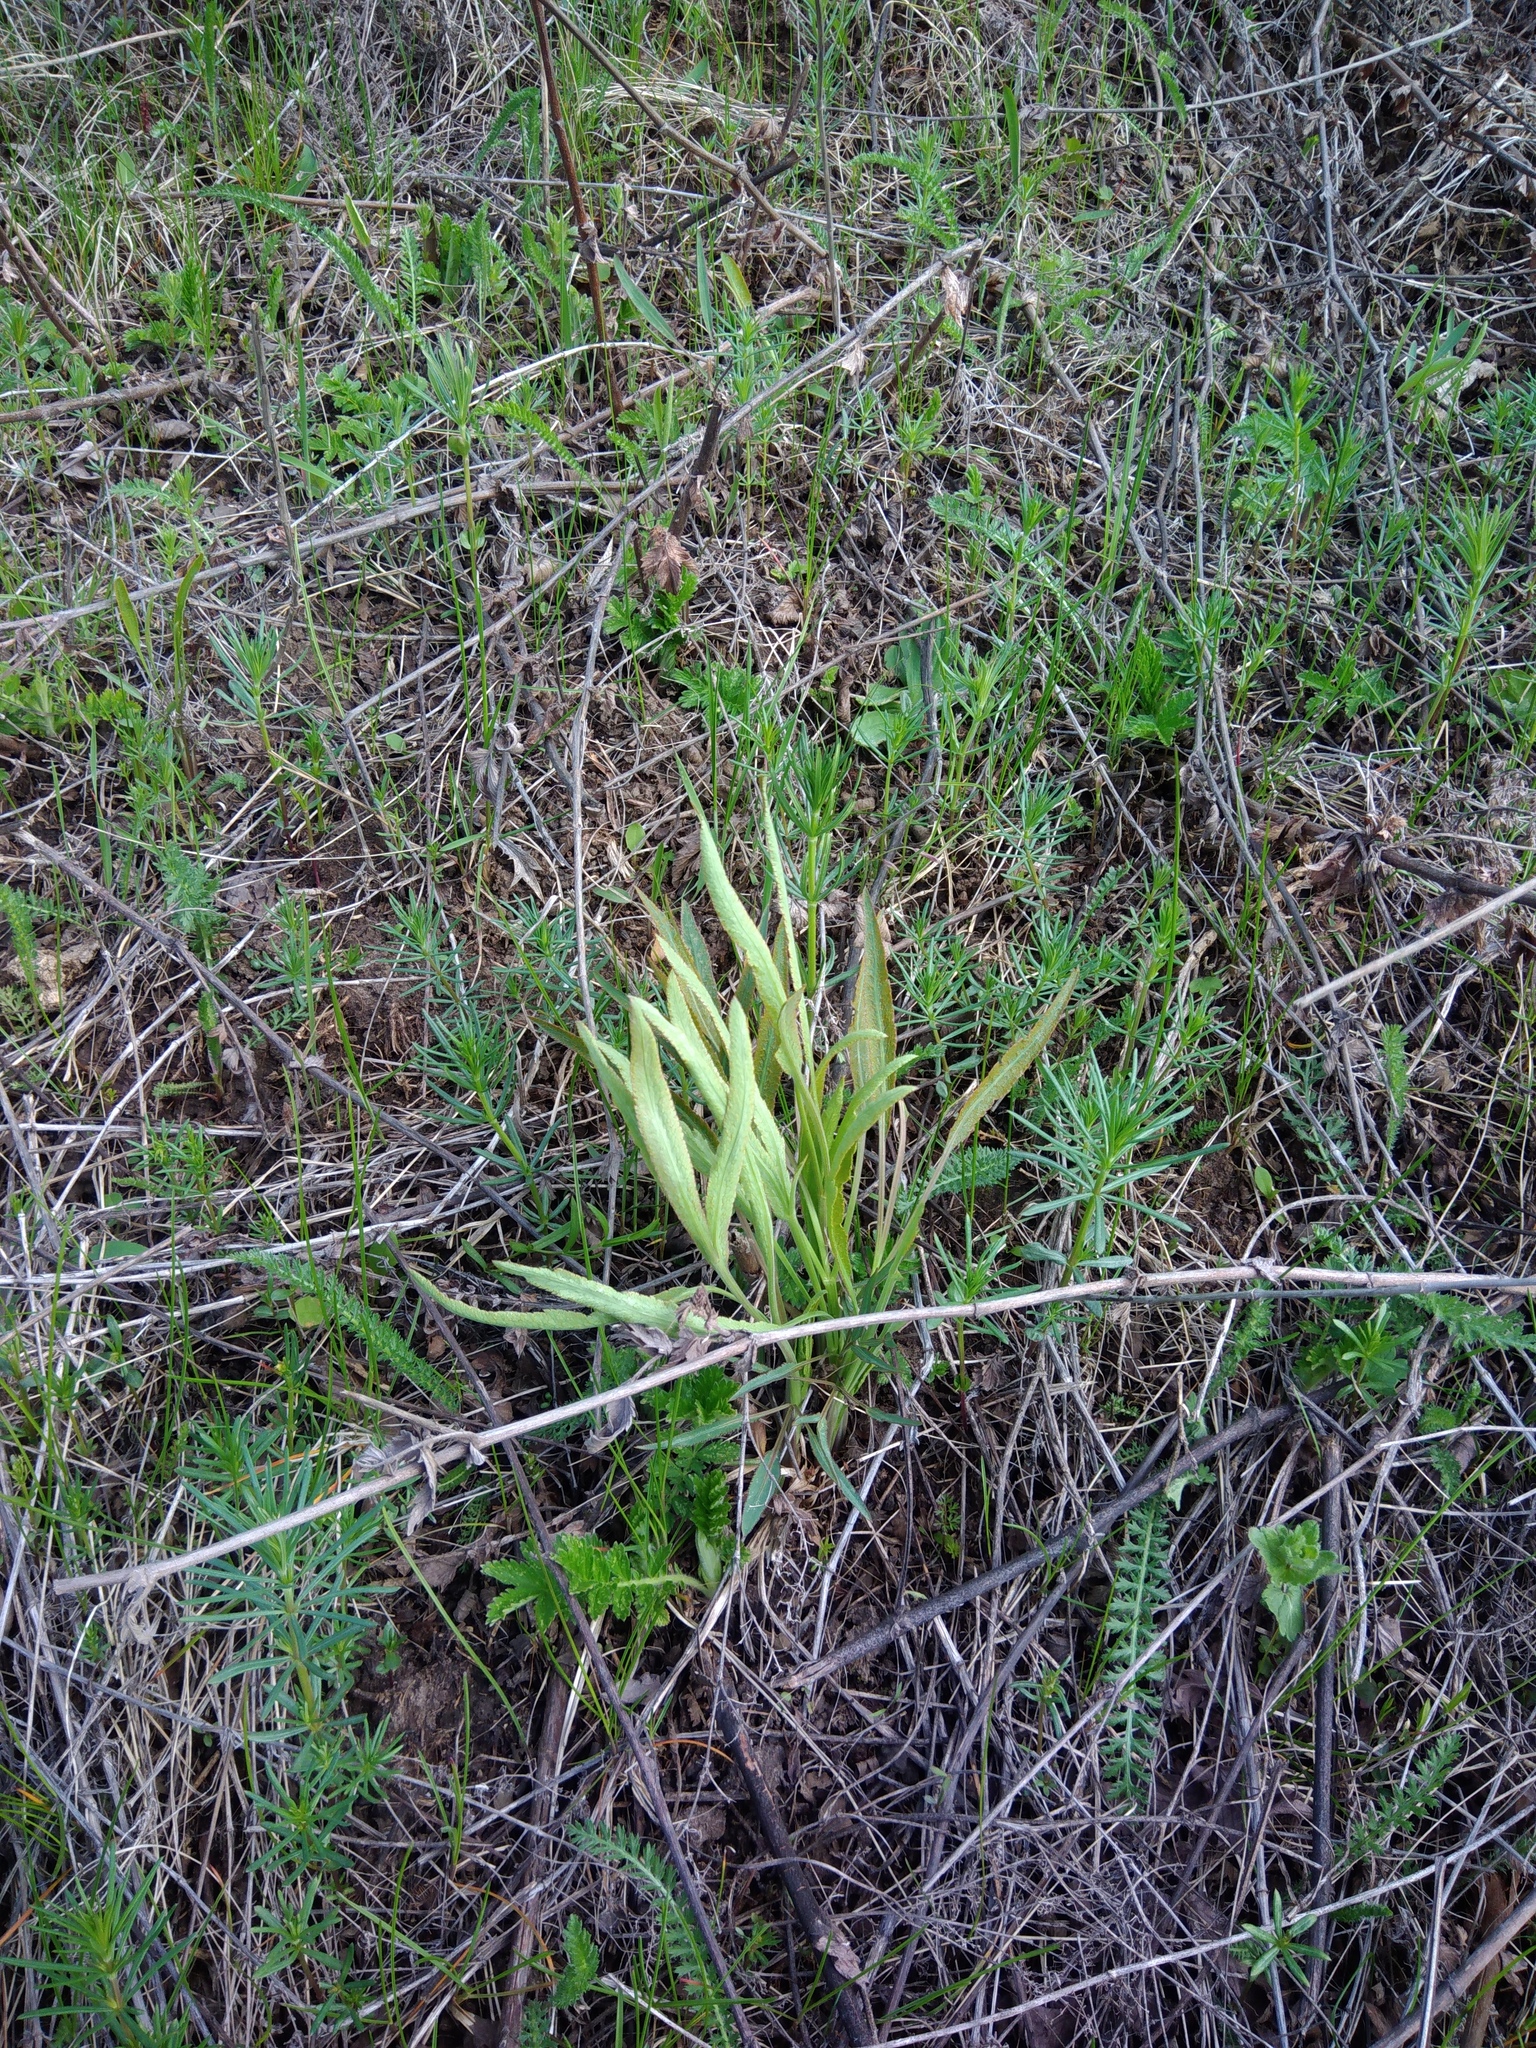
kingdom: Plantae
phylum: Tracheophyta
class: Magnoliopsida
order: Apiales
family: Apiaceae
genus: Falcaria
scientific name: Falcaria vulgaris
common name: Longleaf
